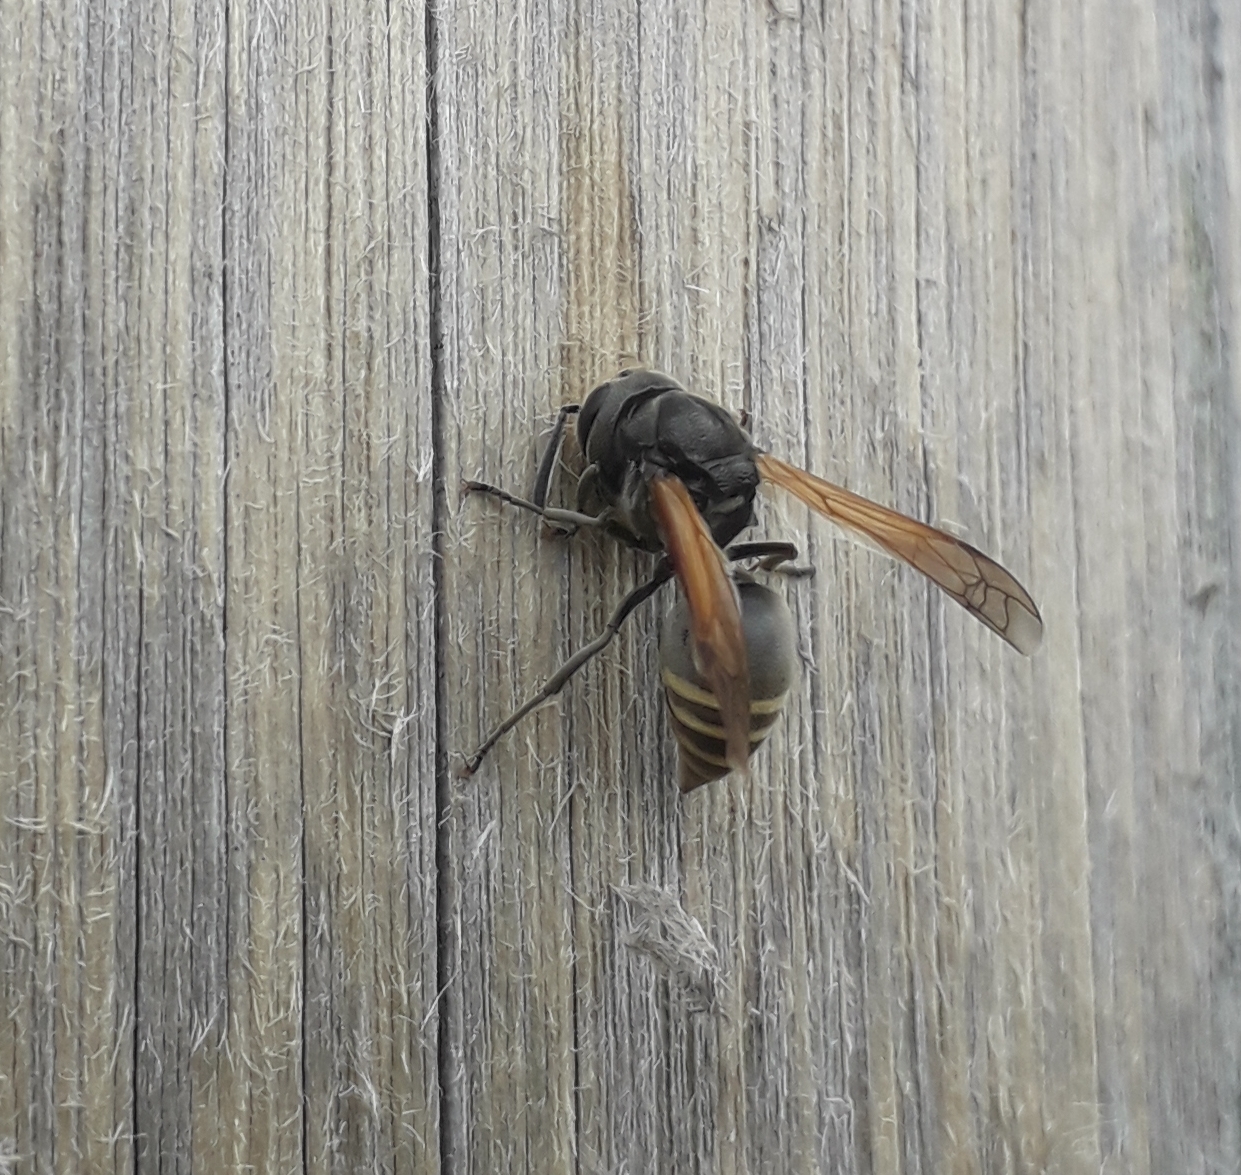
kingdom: Animalia
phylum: Arthropoda
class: Insecta
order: Hymenoptera
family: Vespidae
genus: Brachygastra
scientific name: Brachygastra lecheguana
